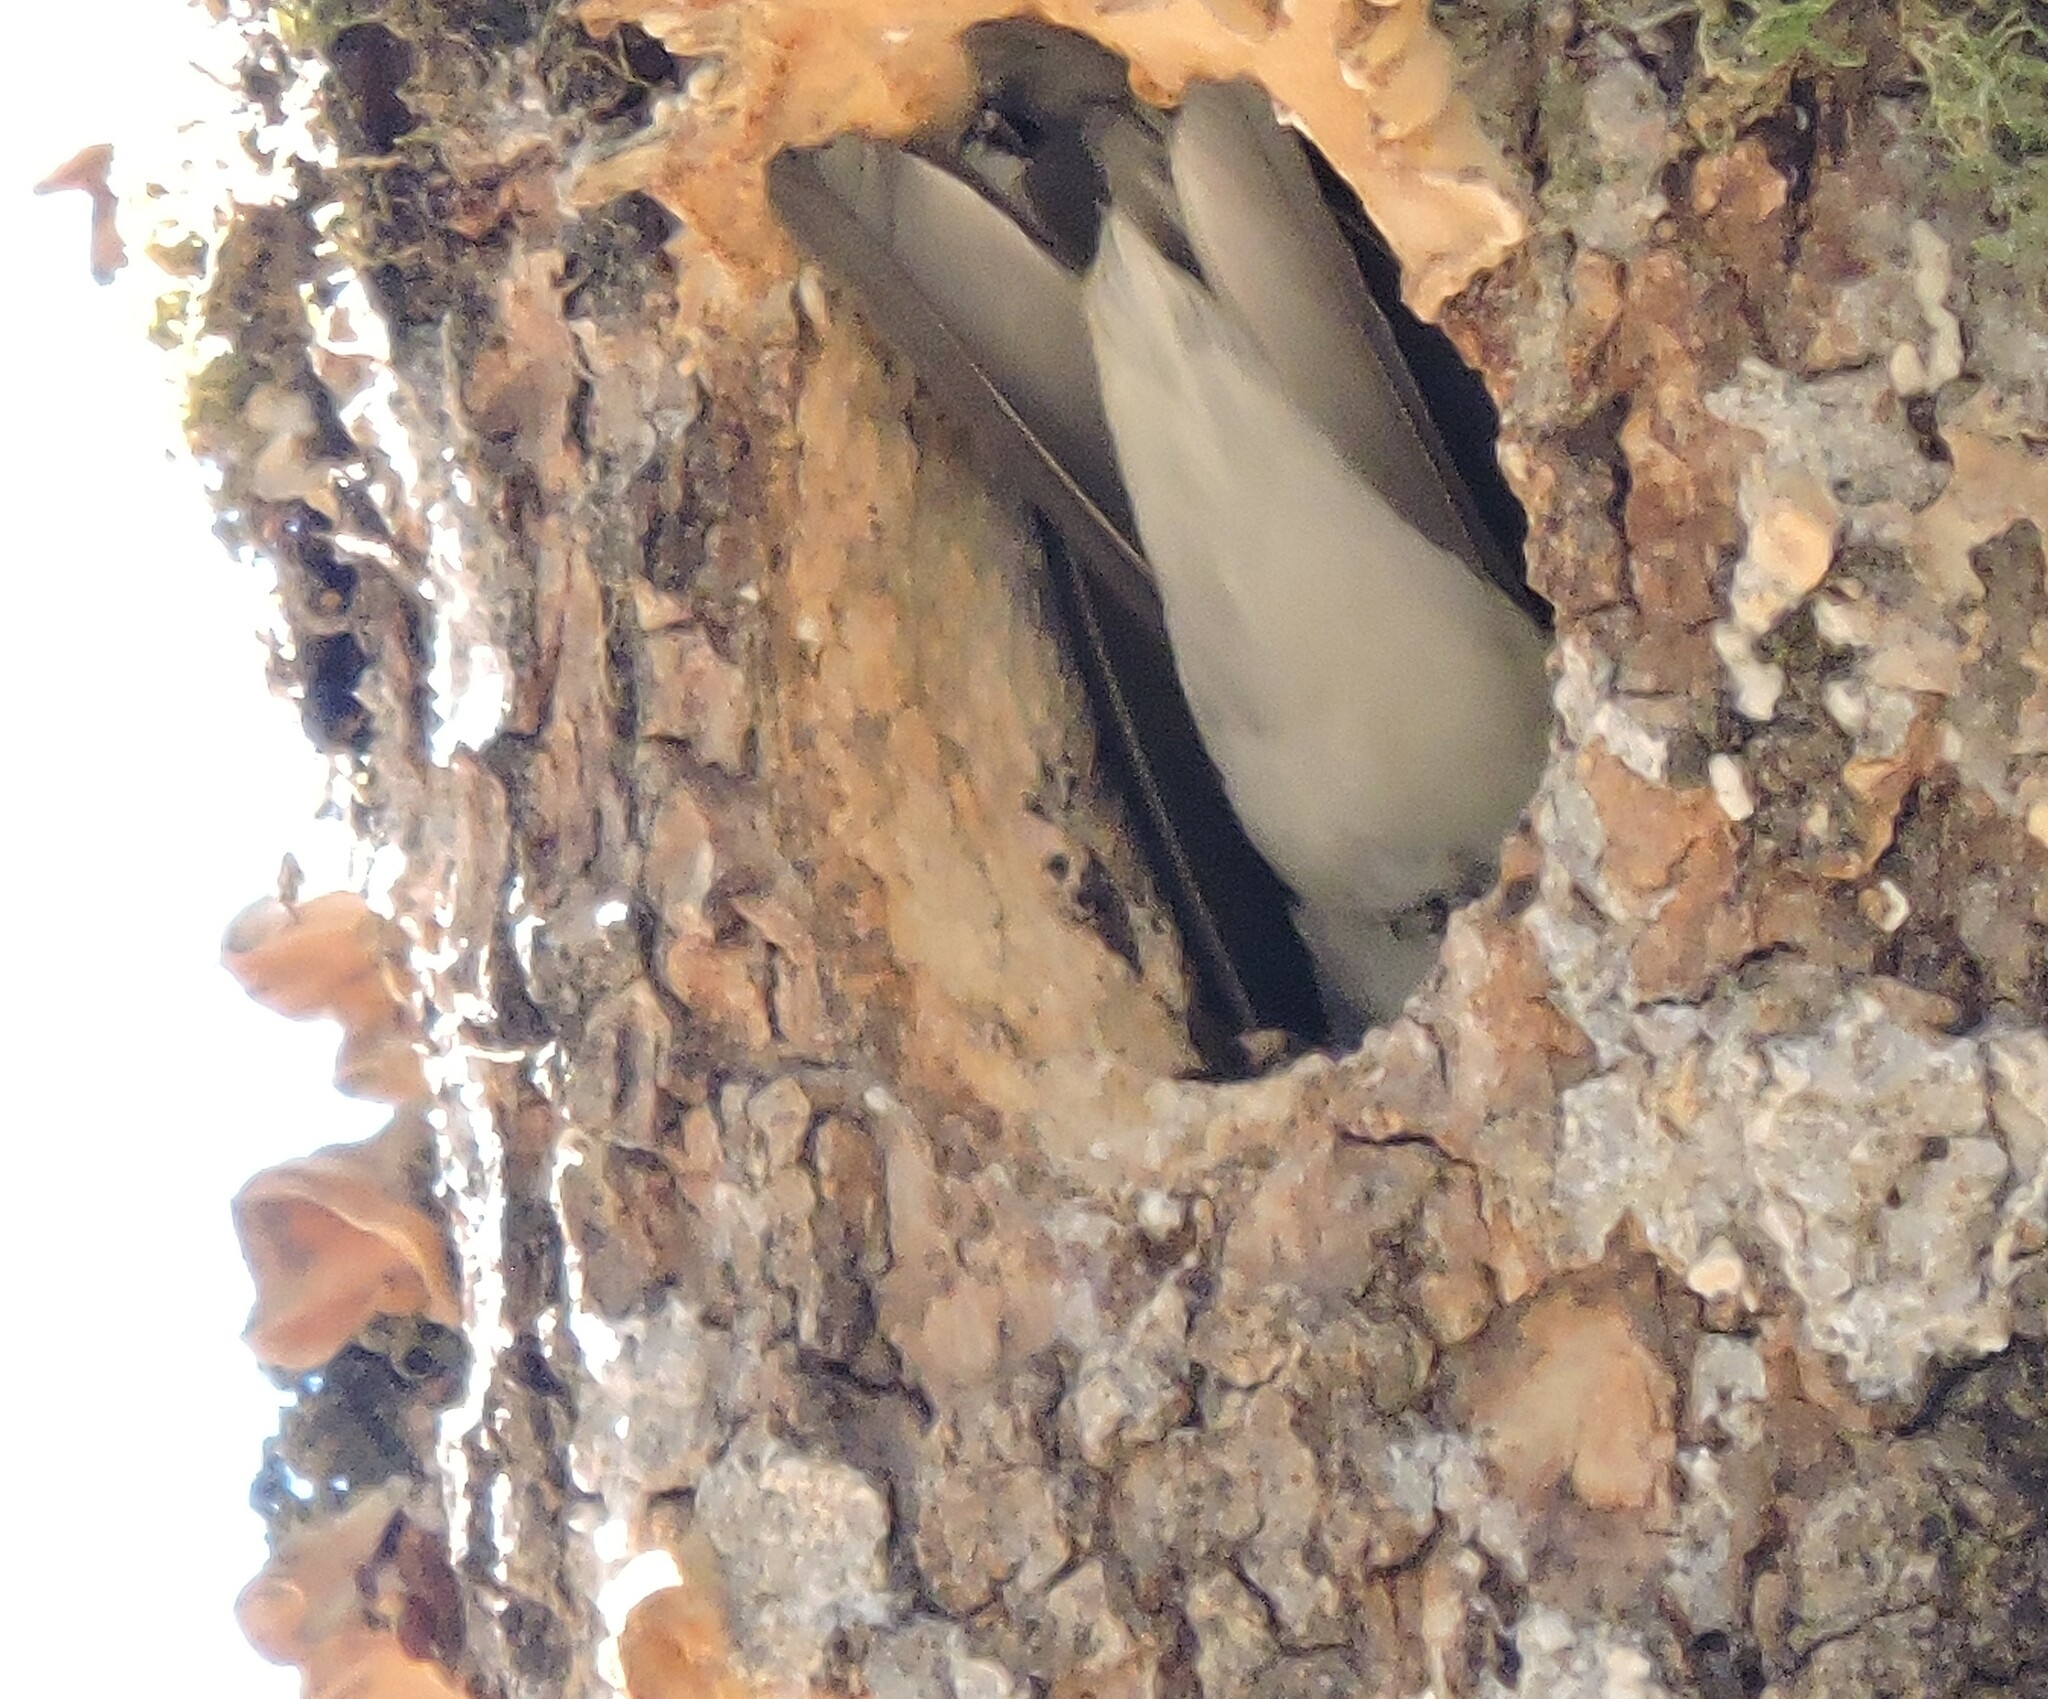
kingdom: Animalia
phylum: Chordata
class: Aves
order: Passeriformes
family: Hirundinidae
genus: Tachycineta
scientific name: Tachycineta bicolor
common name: Tree swallow
